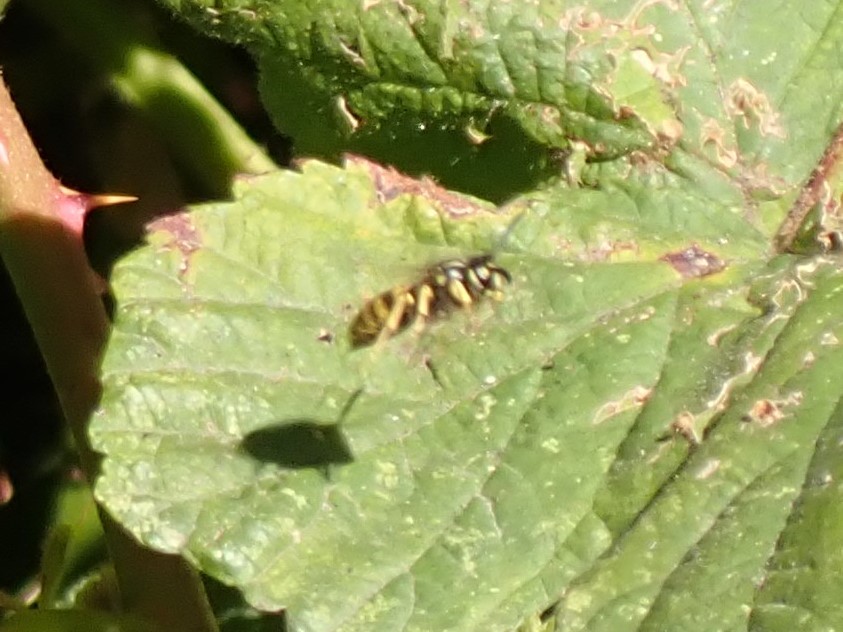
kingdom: Animalia
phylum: Arthropoda
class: Insecta
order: Hymenoptera
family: Vespidae
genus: Vespula
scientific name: Vespula alascensis
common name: Alaska yellowjacket
